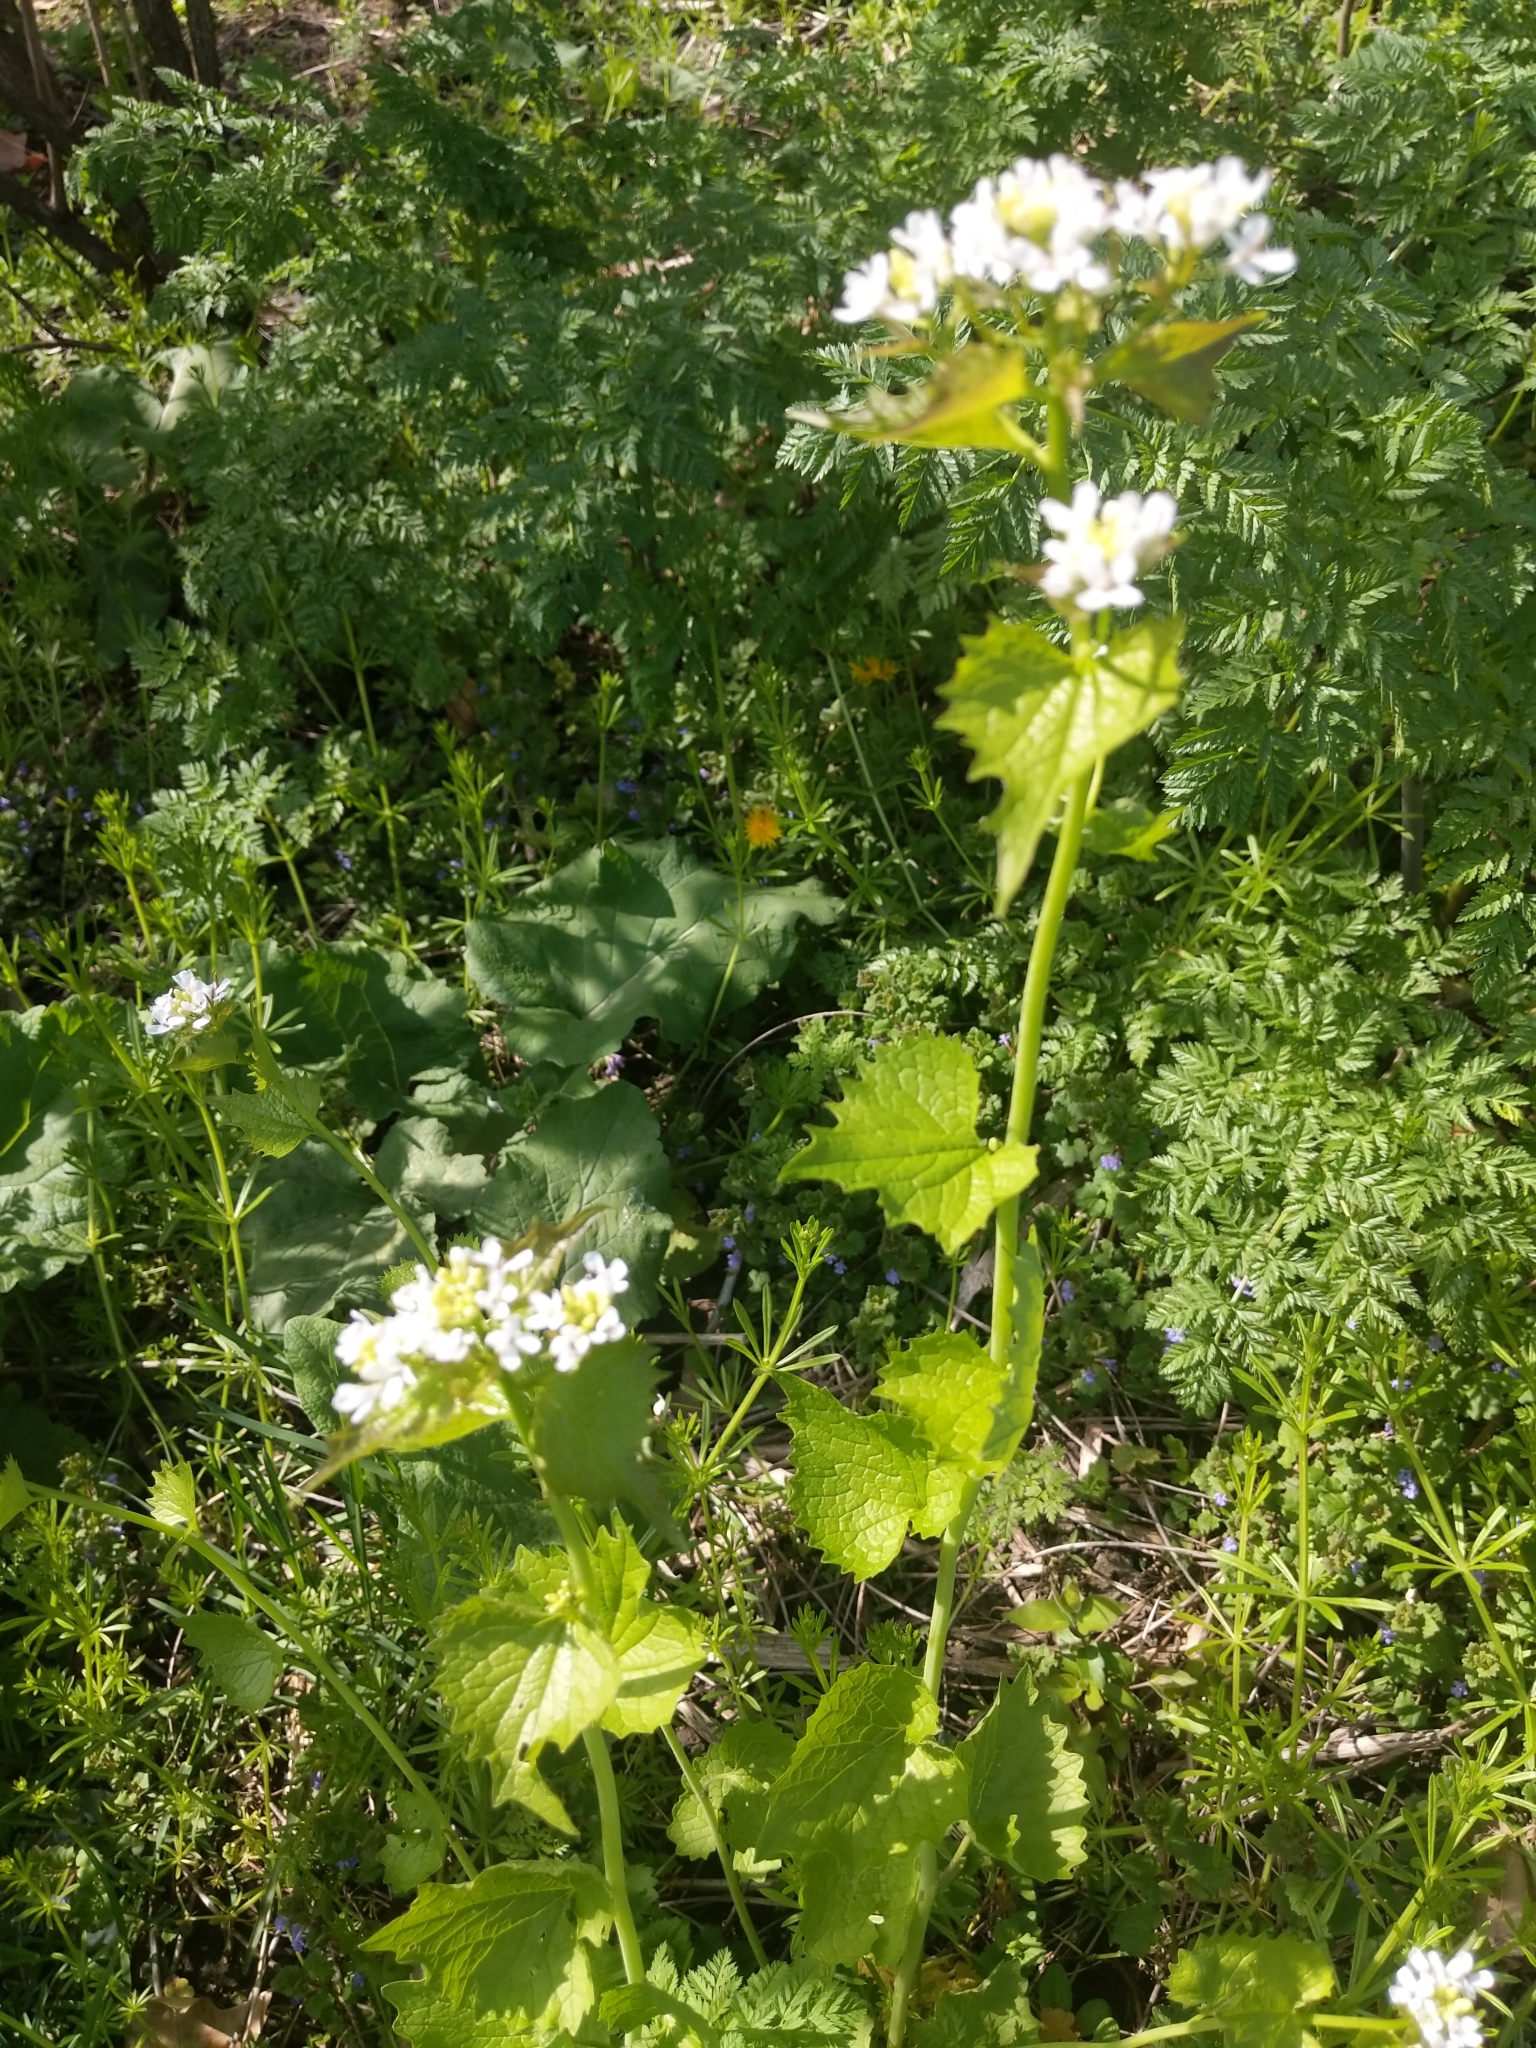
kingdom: Plantae
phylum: Tracheophyta
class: Magnoliopsida
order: Brassicales
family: Brassicaceae
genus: Alliaria
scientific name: Alliaria petiolata
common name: Garlic mustard
